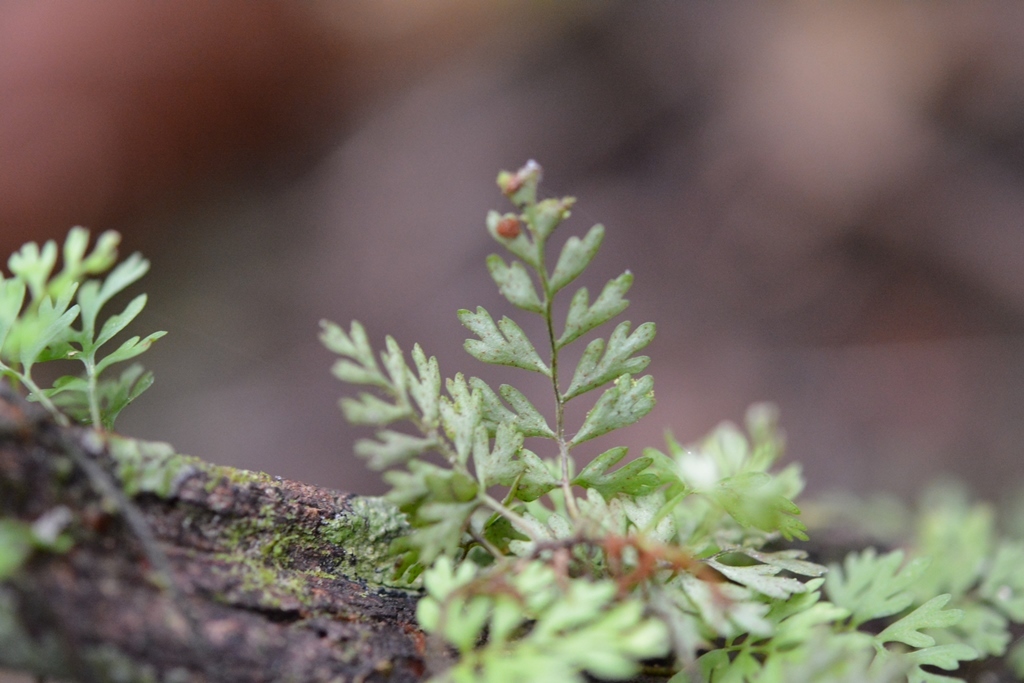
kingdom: Plantae
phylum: Tracheophyta
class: Polypodiopsida
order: Polypodiales
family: Polypodiaceae
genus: Pleopeltis
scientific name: Pleopeltis fallax
